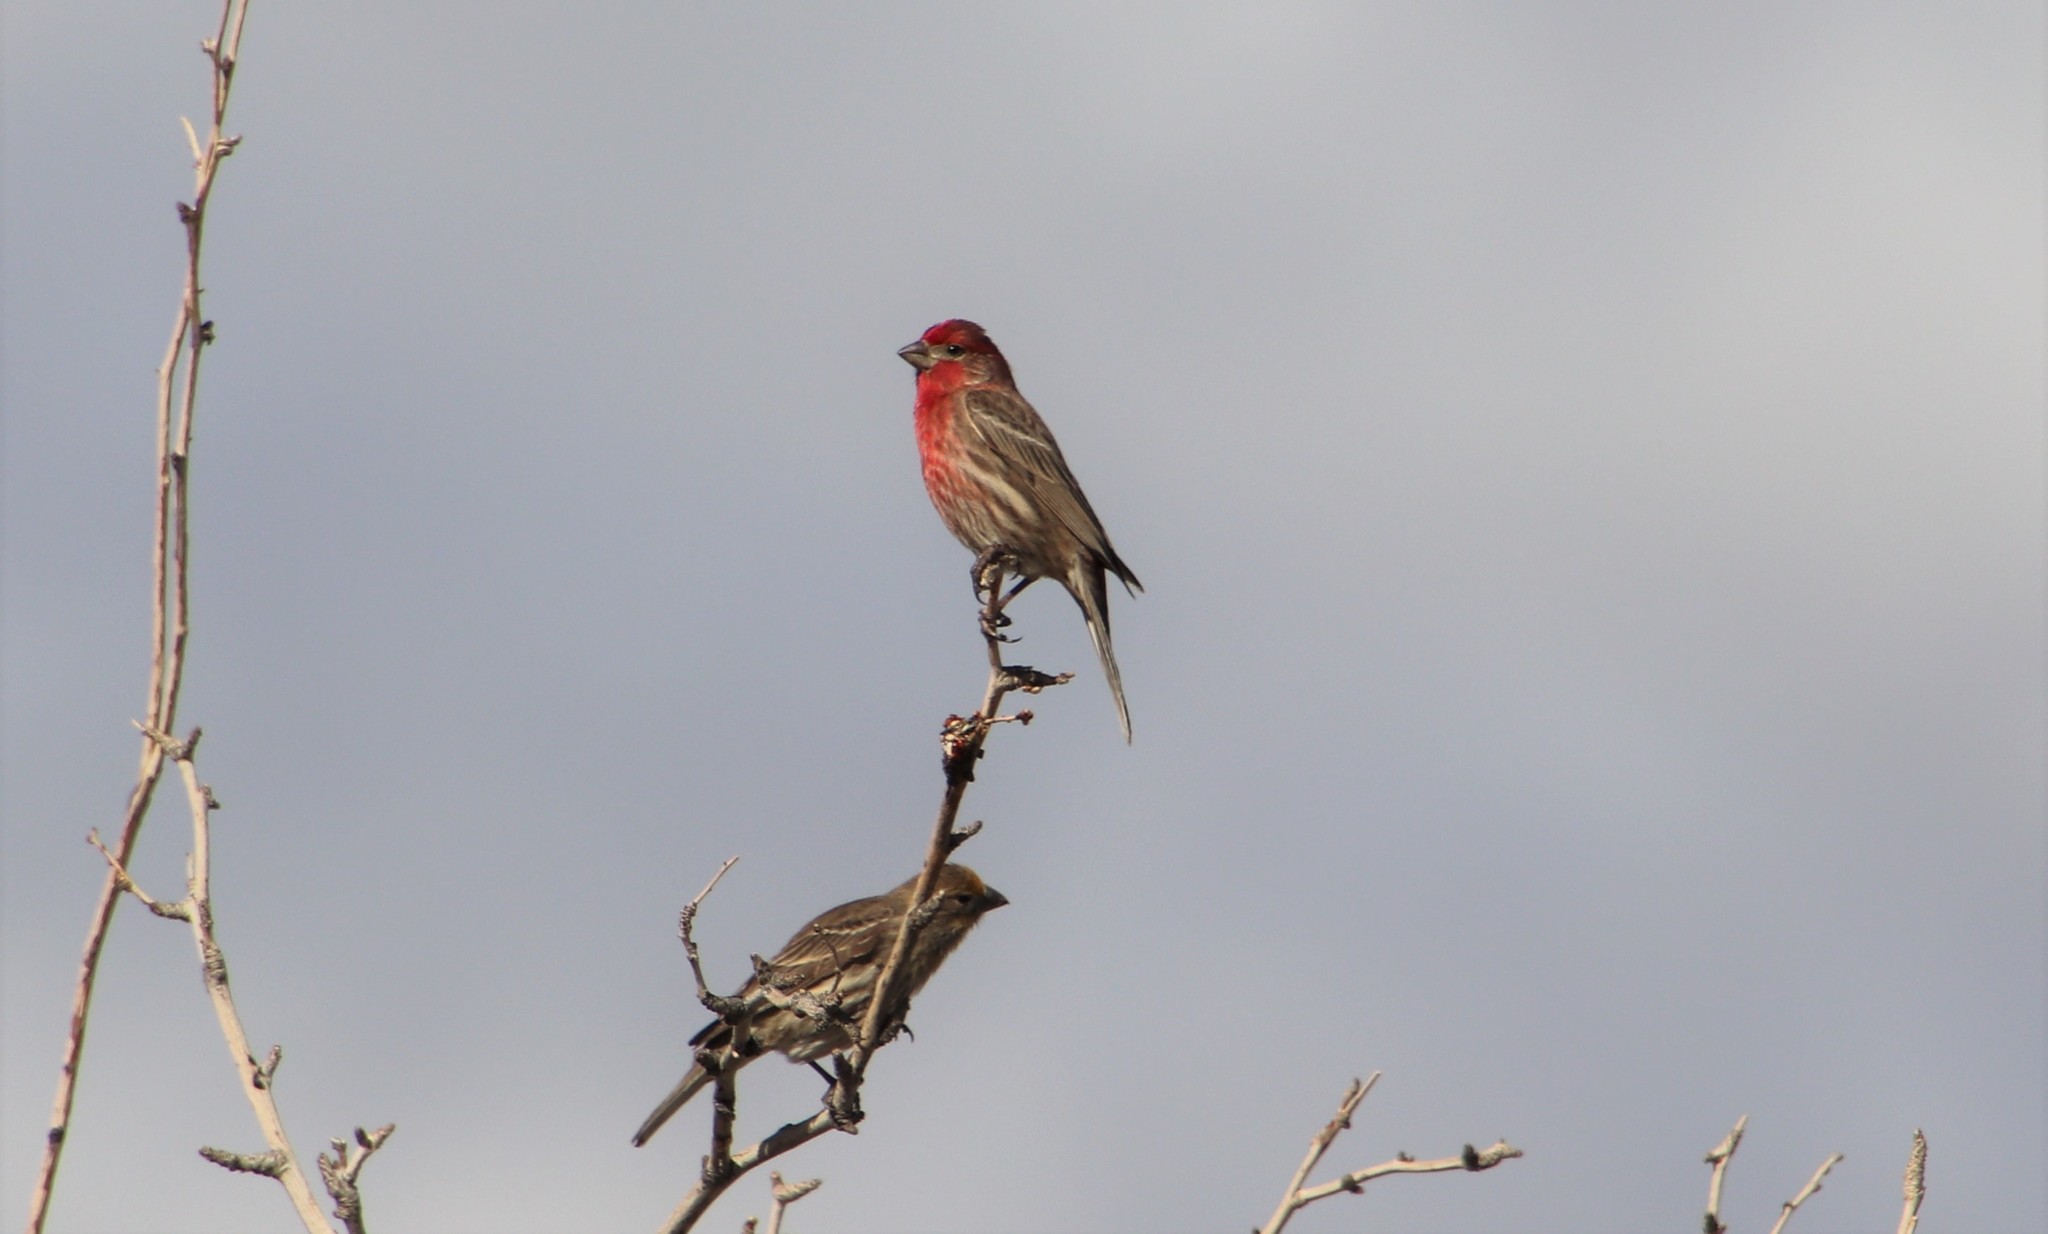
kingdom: Animalia
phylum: Chordata
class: Aves
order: Passeriformes
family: Fringillidae
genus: Haemorhous
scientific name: Haemorhous mexicanus
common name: House finch
